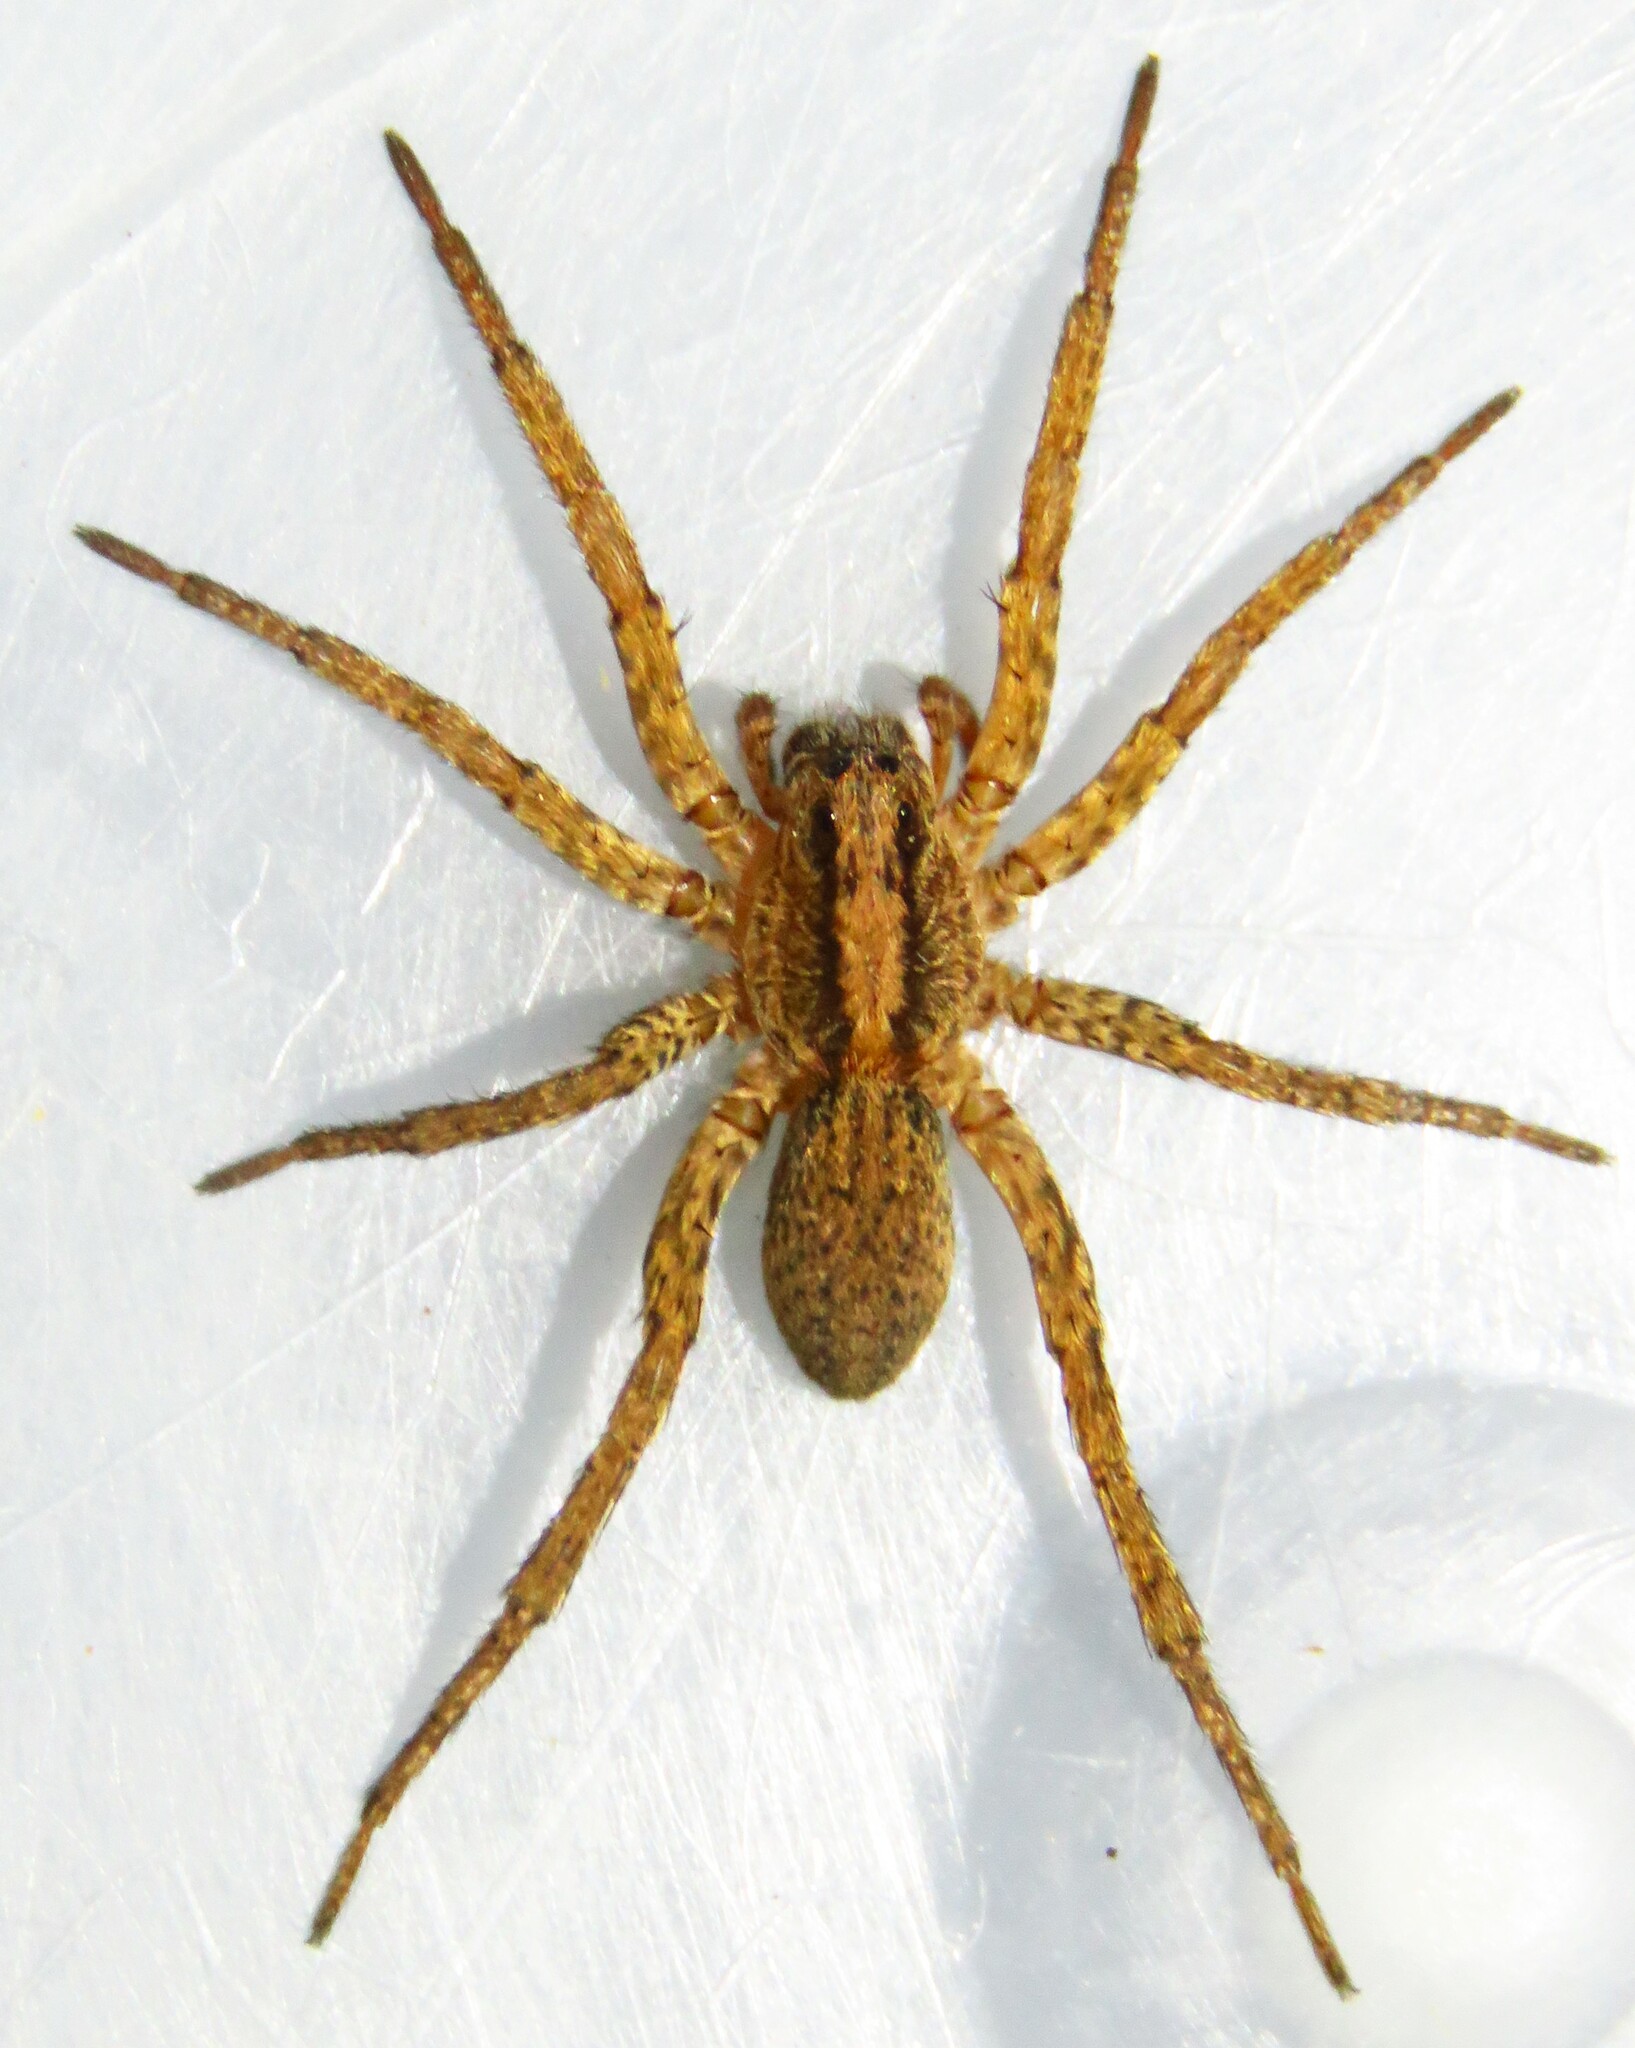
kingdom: Animalia
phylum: Arthropoda
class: Arachnida
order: Araneae
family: Lycosidae
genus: Varacosa
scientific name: Varacosa shenandoa
